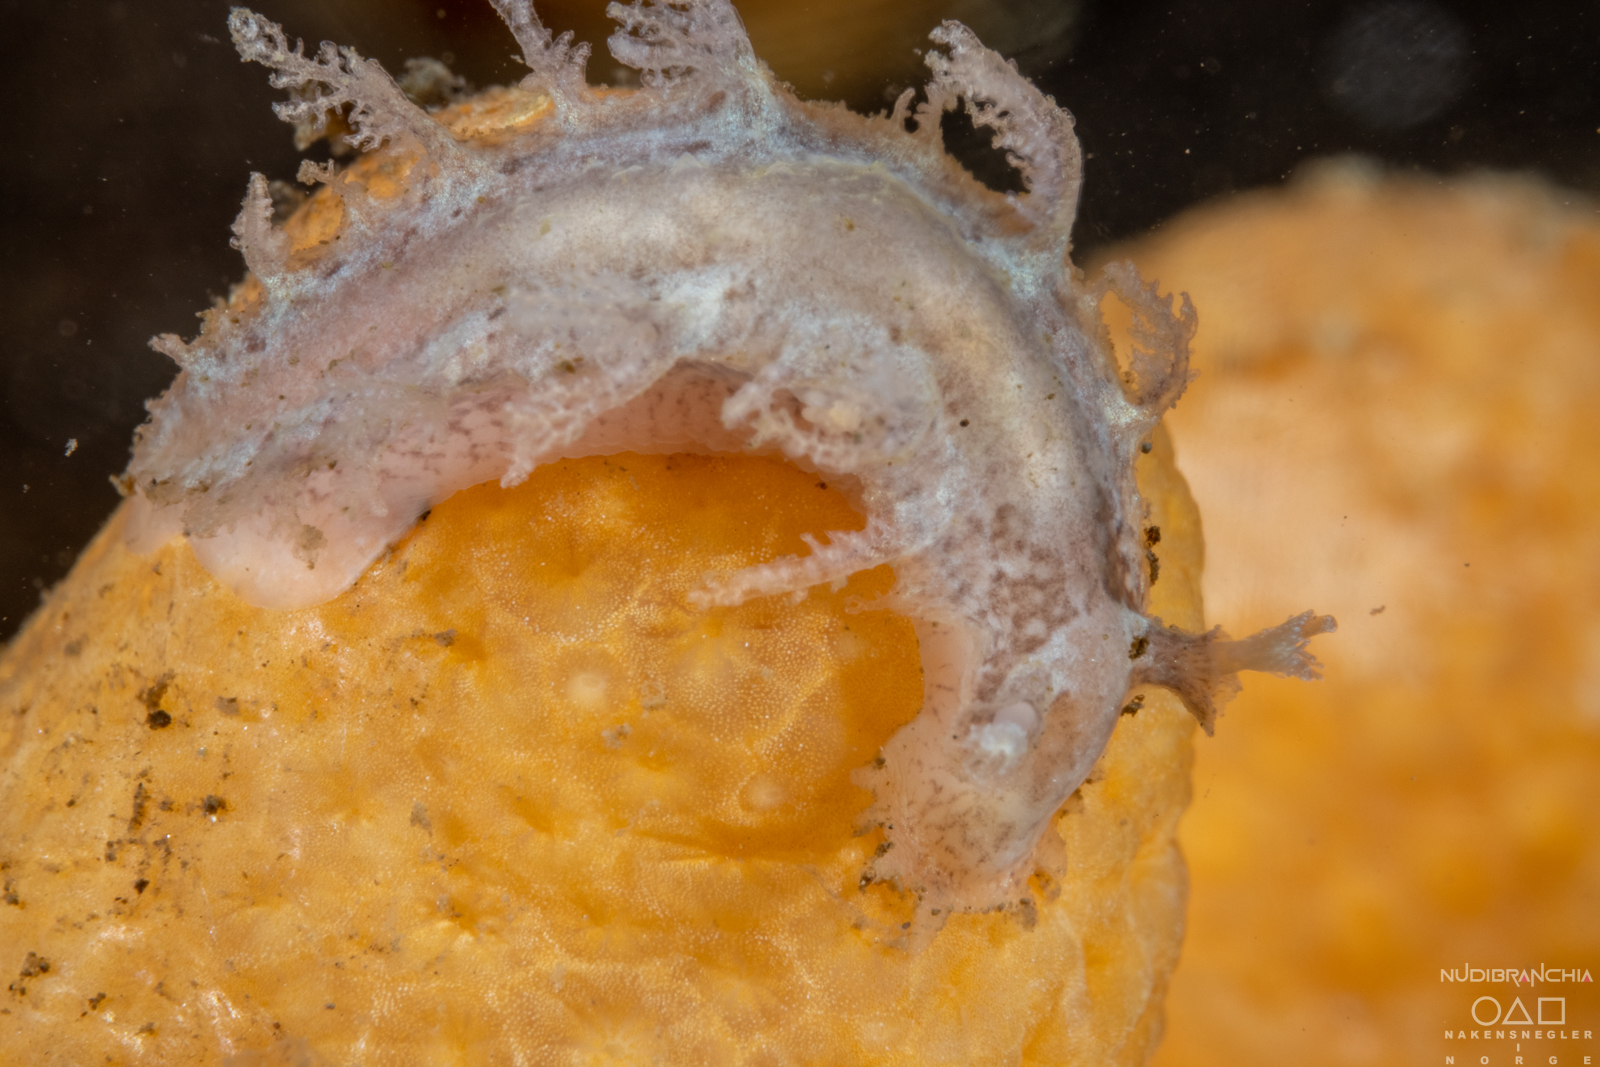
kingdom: Animalia
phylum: Mollusca
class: Gastropoda
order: Nudibranchia
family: Tritoniidae
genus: Duvaucelia
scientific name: Duvaucelia plebeia
